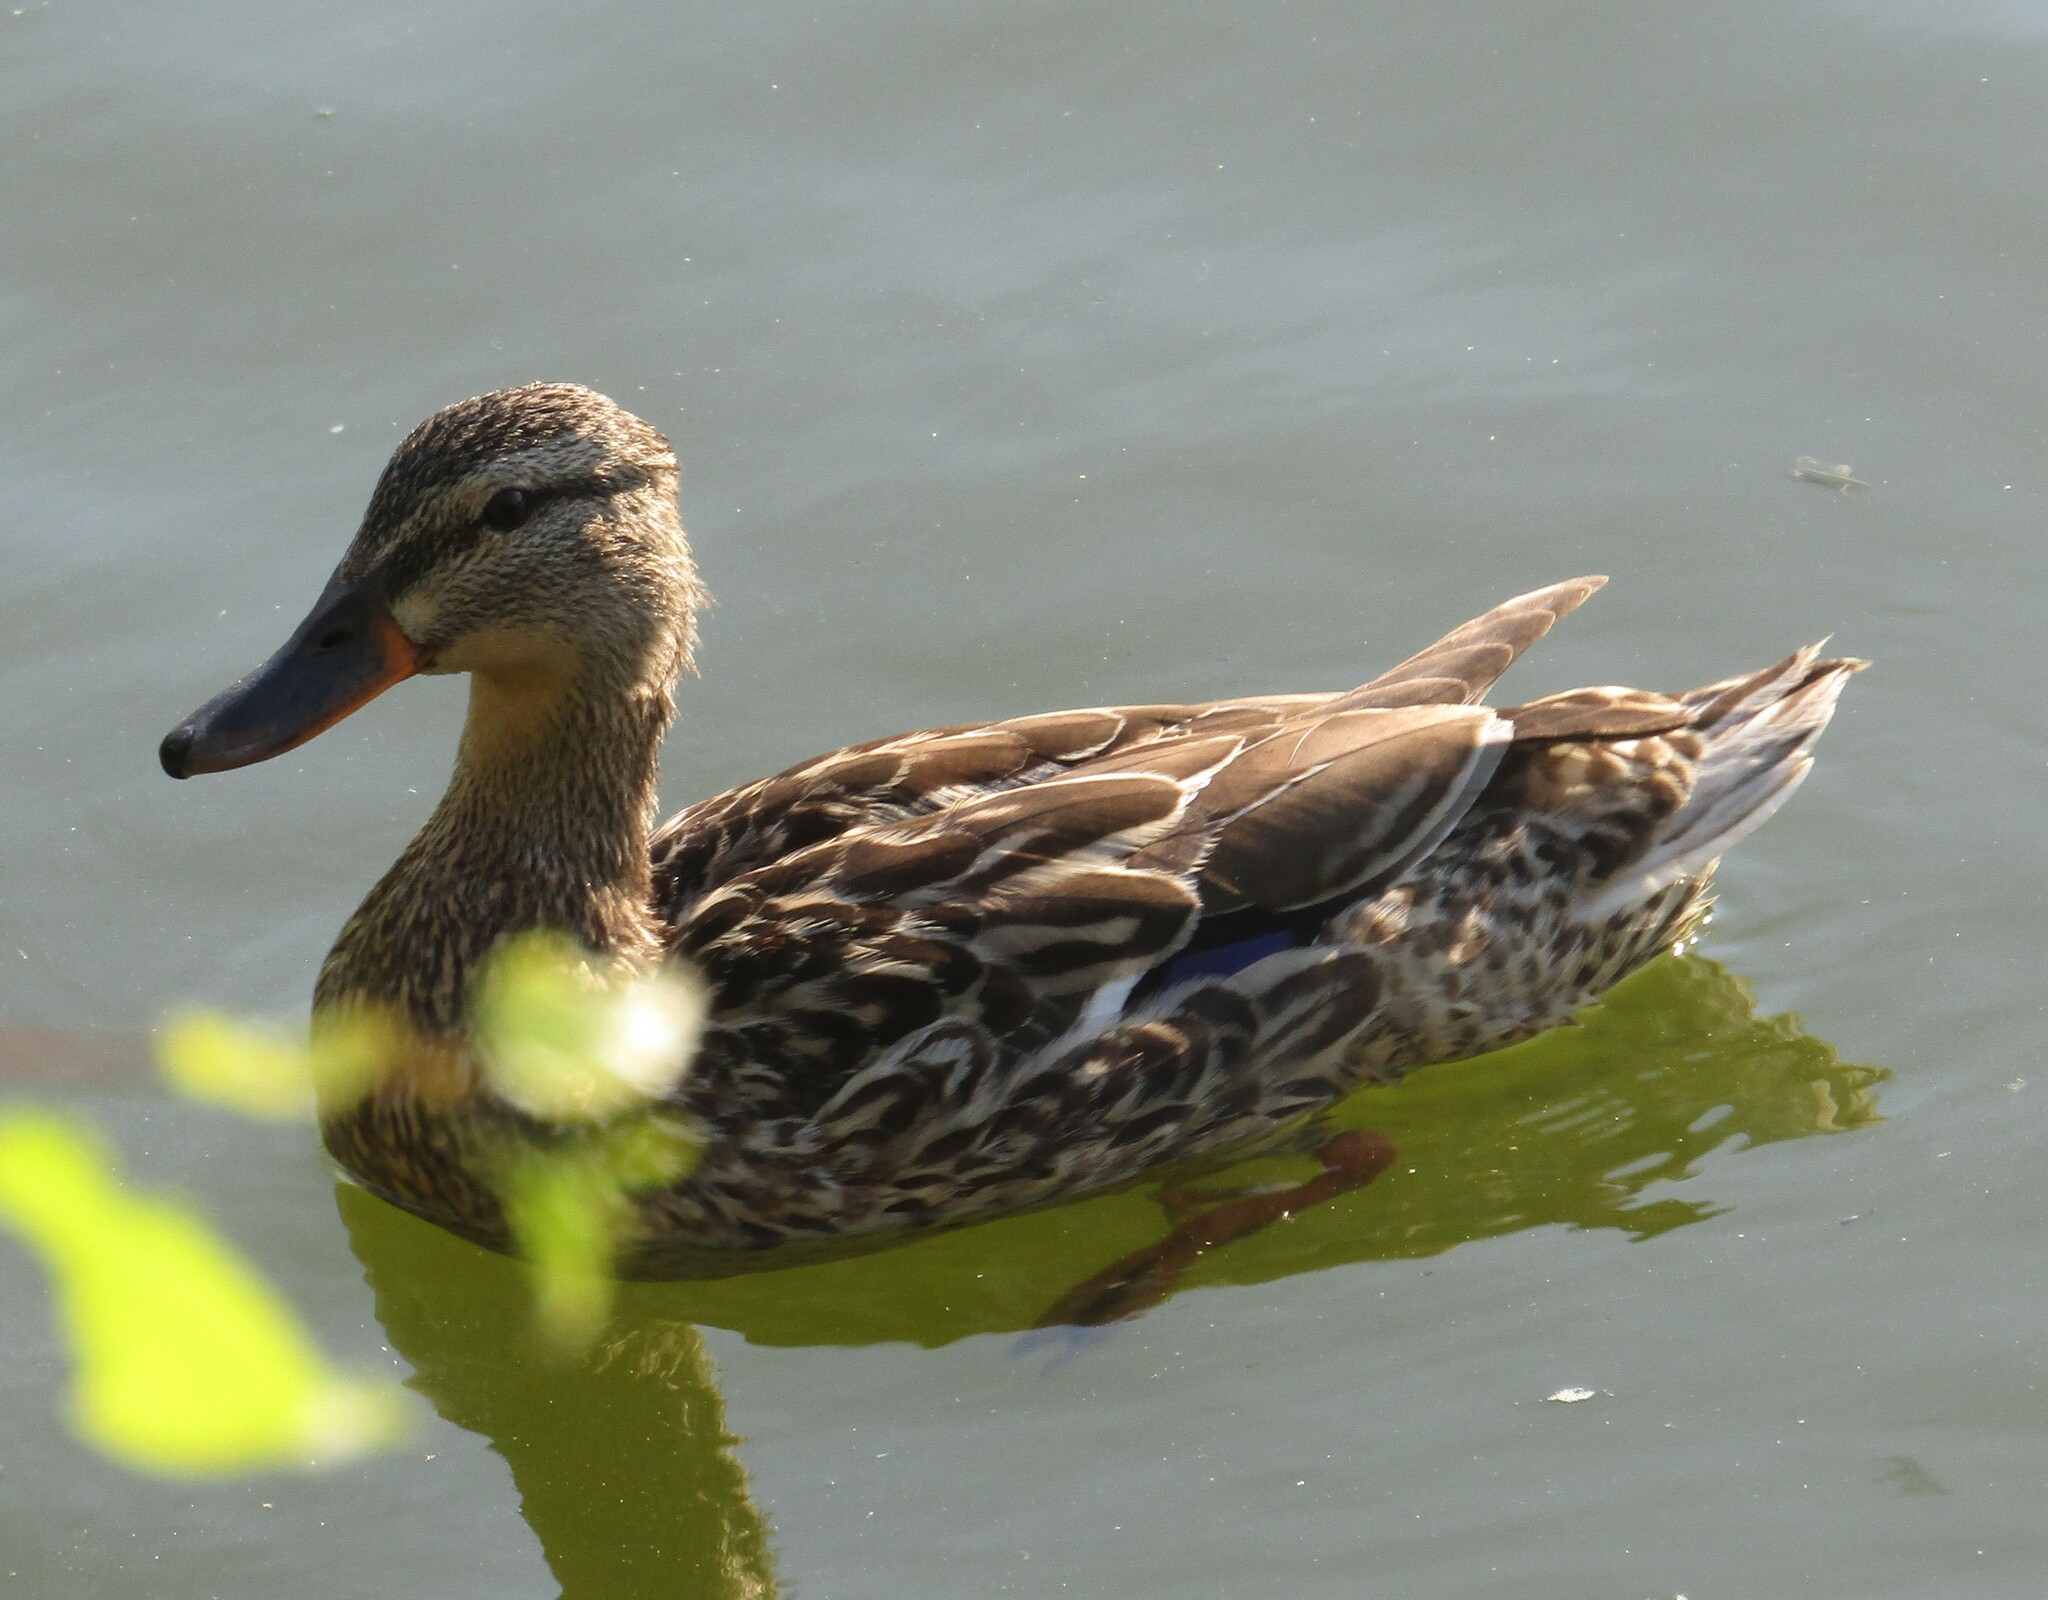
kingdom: Animalia
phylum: Chordata
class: Aves
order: Anseriformes
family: Anatidae
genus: Anas
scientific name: Anas platyrhynchos
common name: Mallard
